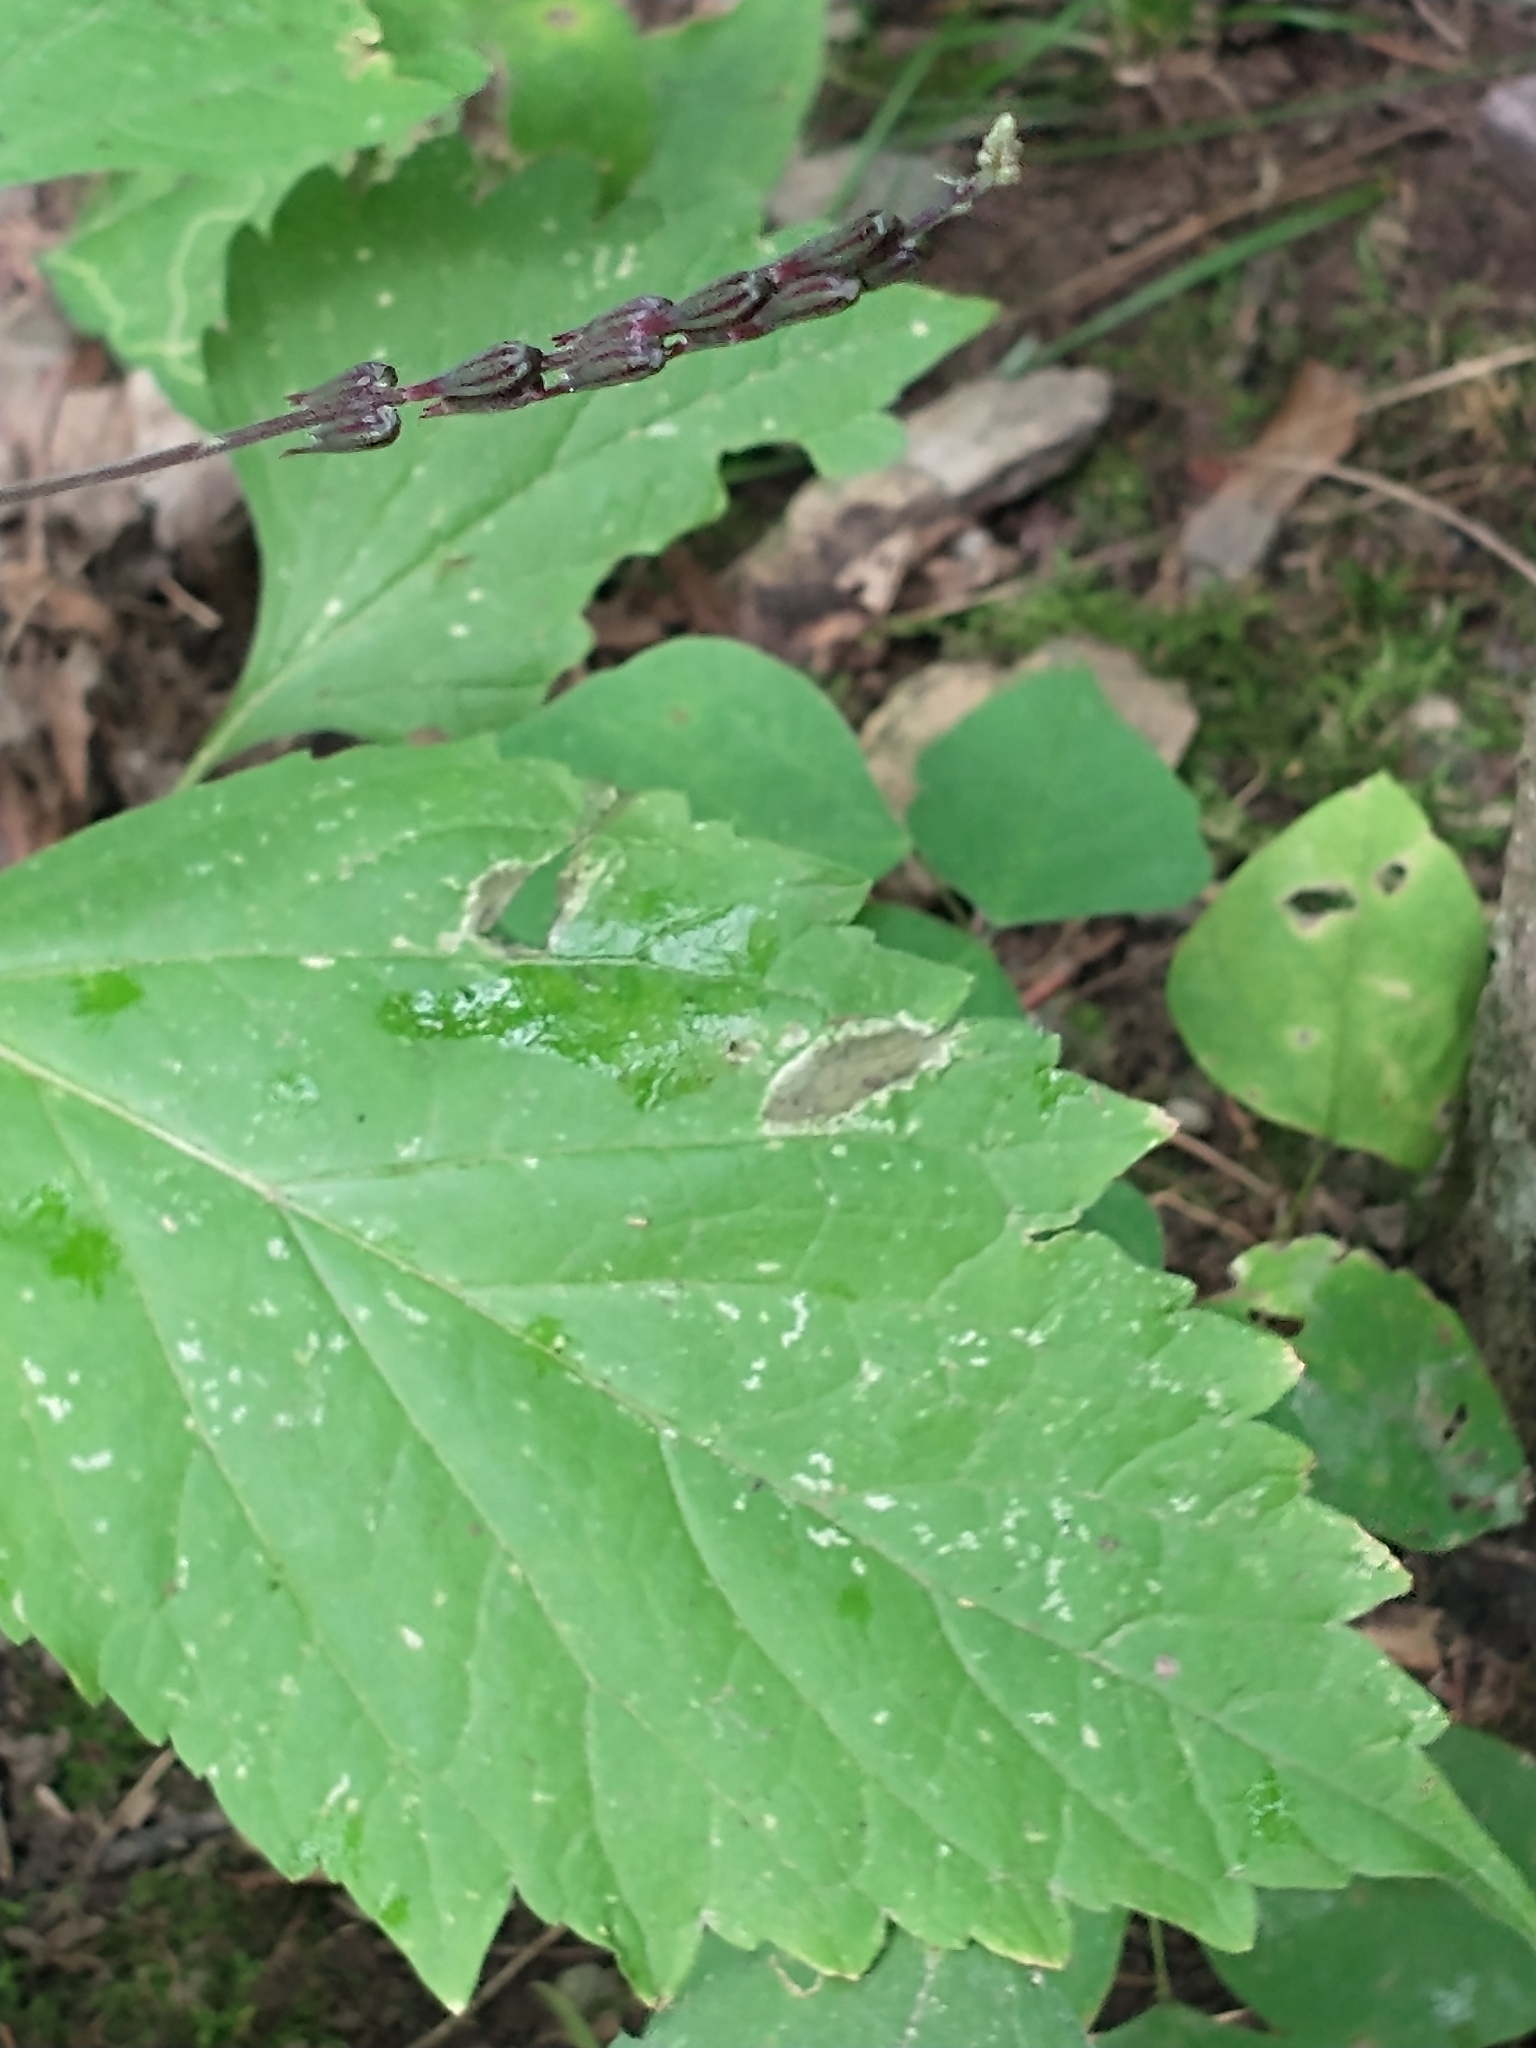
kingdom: Plantae
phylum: Tracheophyta
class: Magnoliopsida
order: Lamiales
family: Phrymaceae
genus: Phryma
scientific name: Phryma leptostachya
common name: American lopseed
